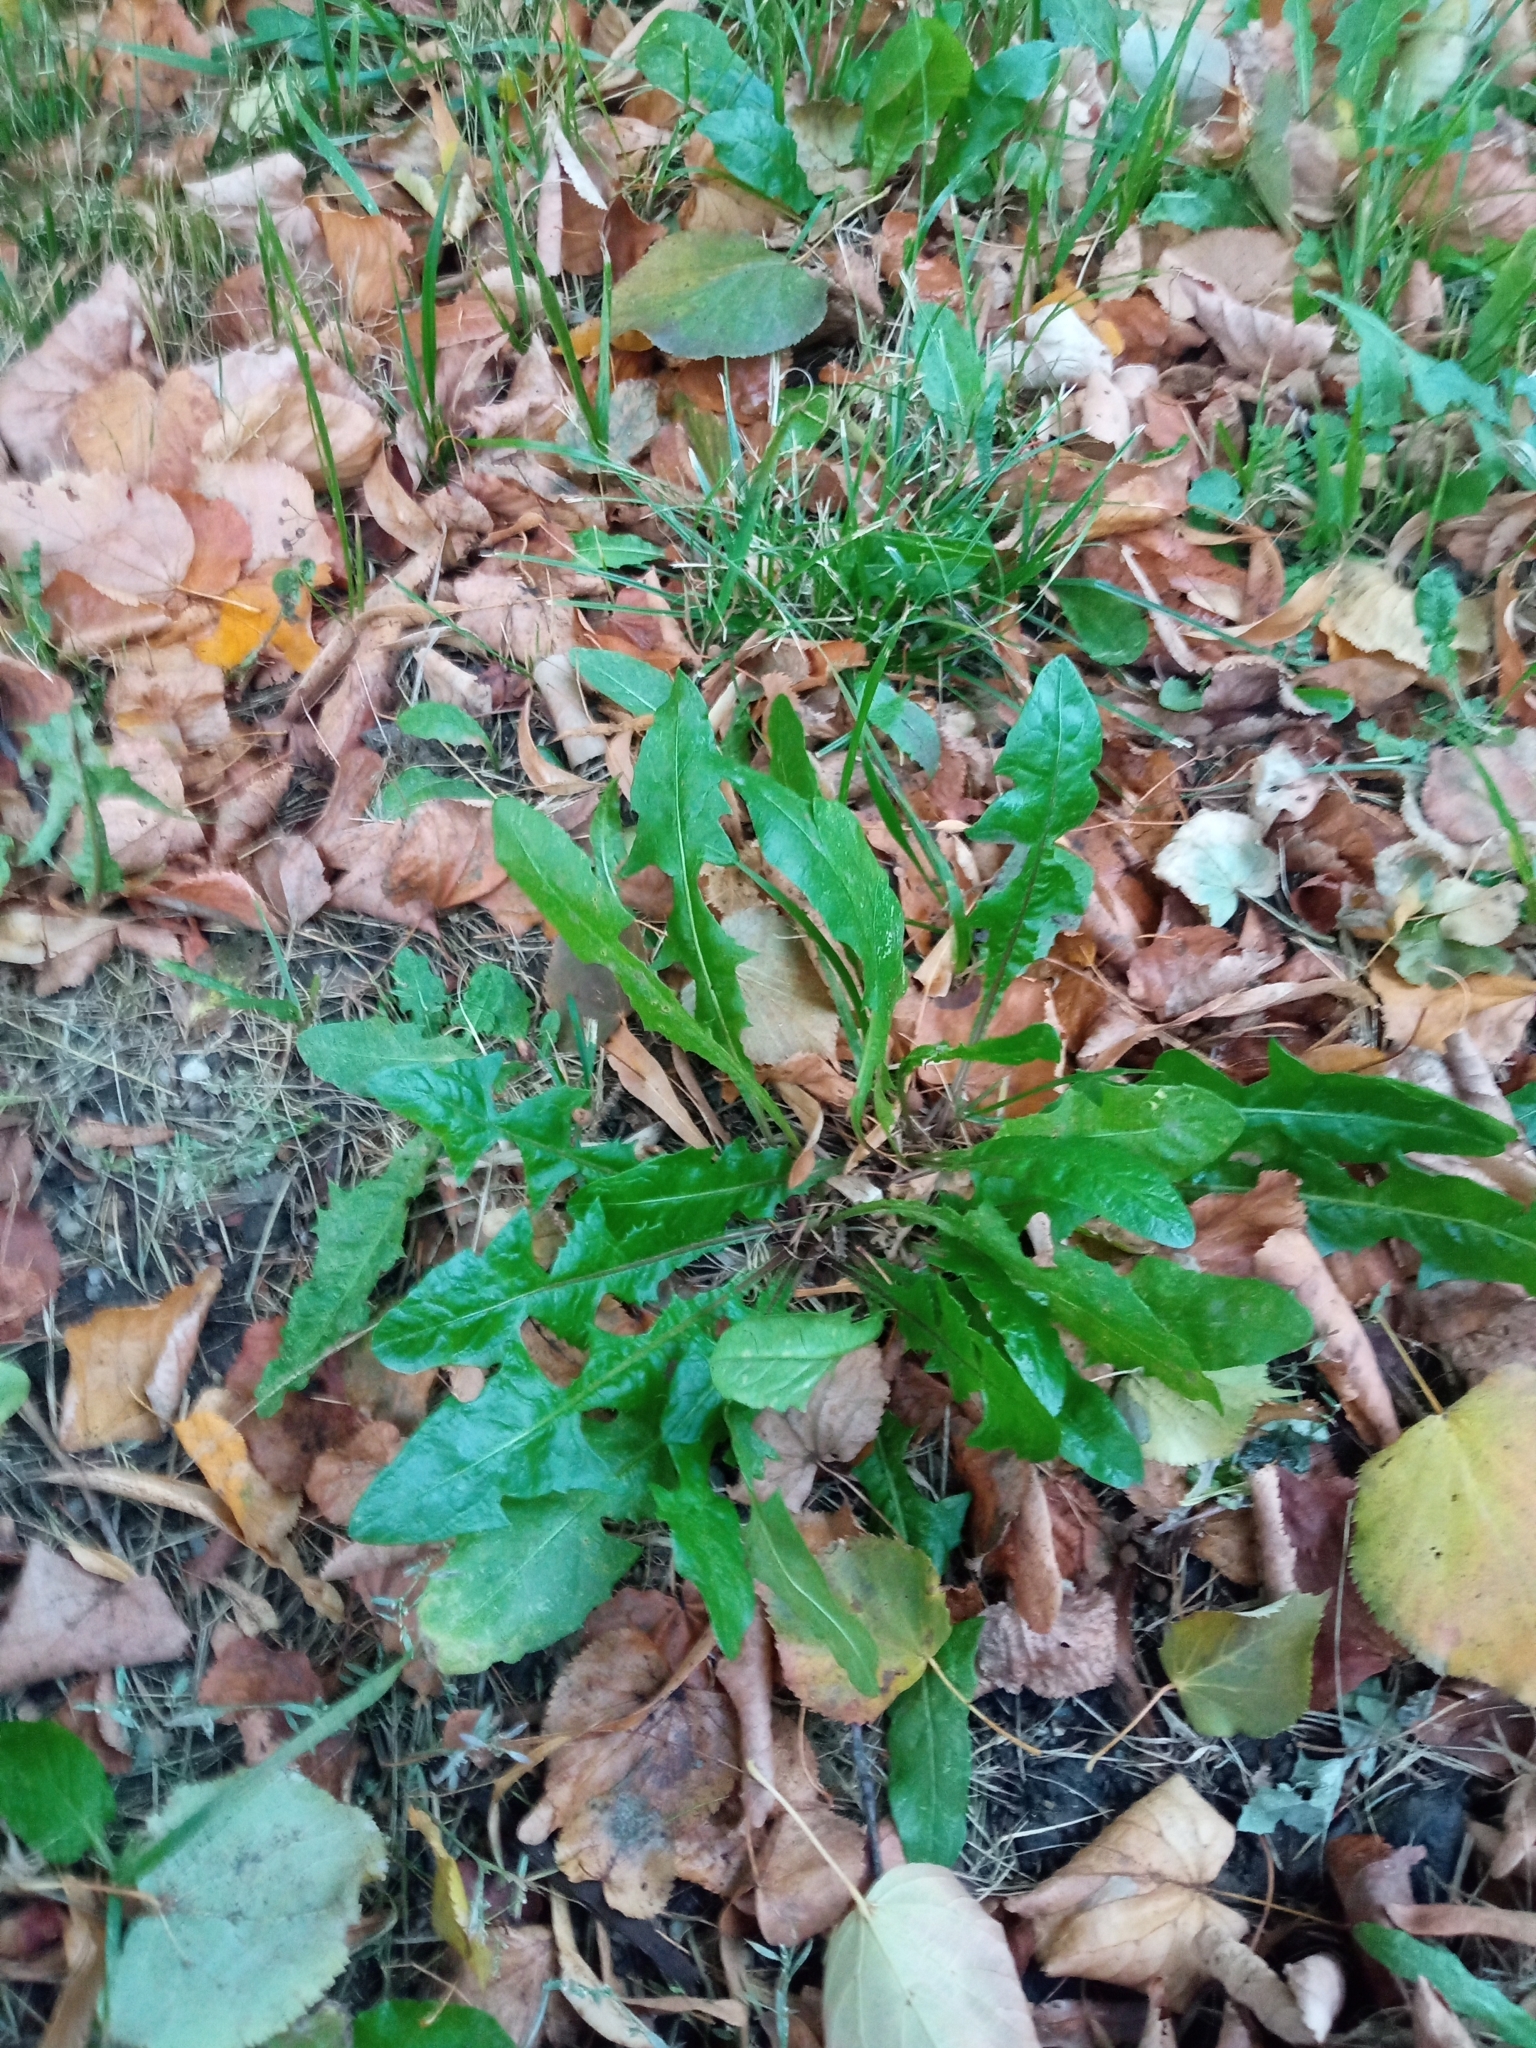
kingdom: Plantae
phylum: Tracheophyta
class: Magnoliopsida
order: Asterales
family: Asteraceae
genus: Taraxacum
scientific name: Taraxacum officinale
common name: Common dandelion
